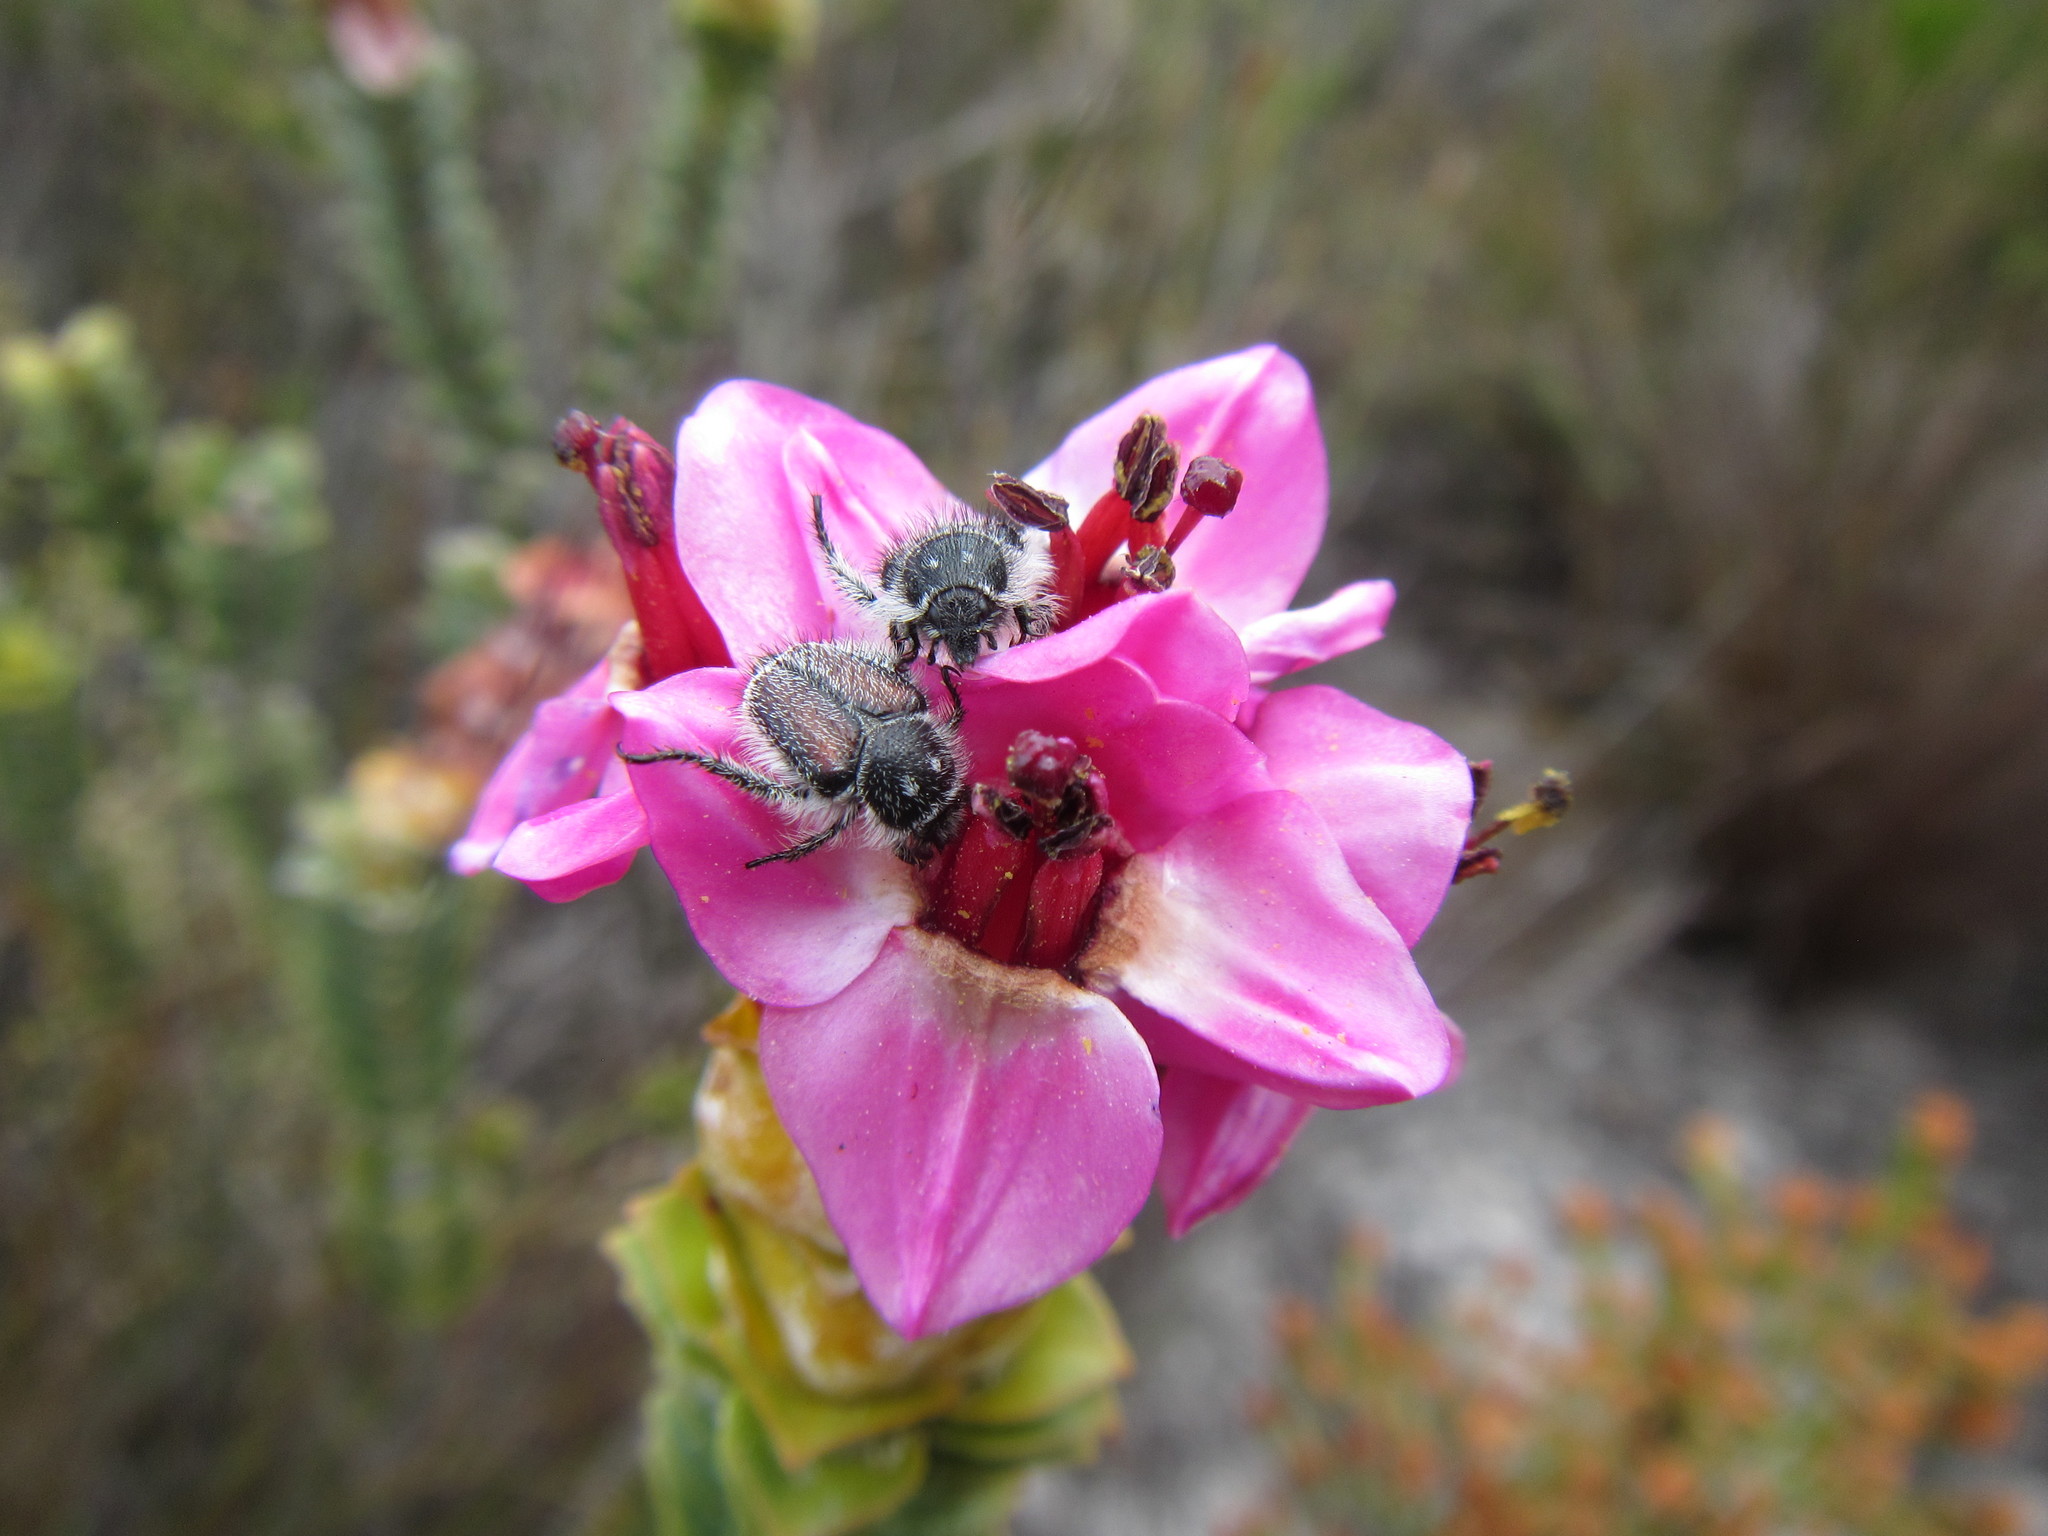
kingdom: Plantae
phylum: Tracheophyta
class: Magnoliopsida
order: Myrtales
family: Penaeaceae
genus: Saltera
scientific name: Saltera sarcocolla
